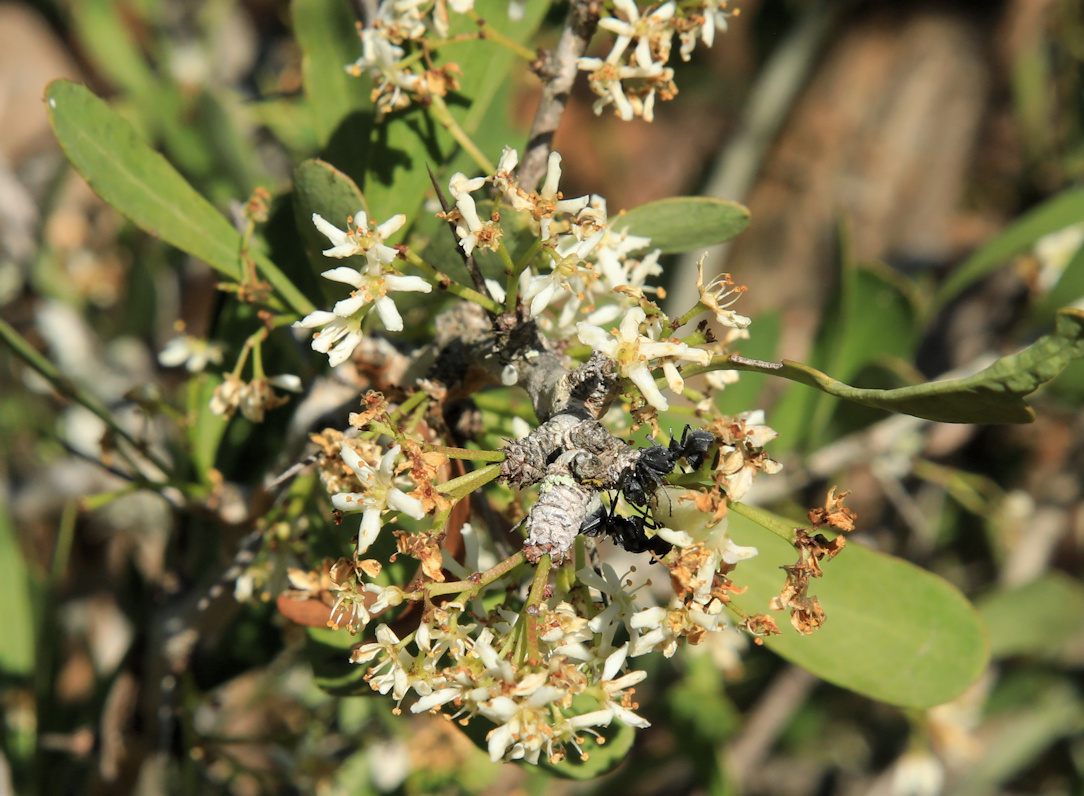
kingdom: Plantae
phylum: Tracheophyta
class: Magnoliopsida
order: Celastrales
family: Celastraceae
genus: Gymnosporia
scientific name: Gymnosporia glaucophylla
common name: Blue spike-thorn
